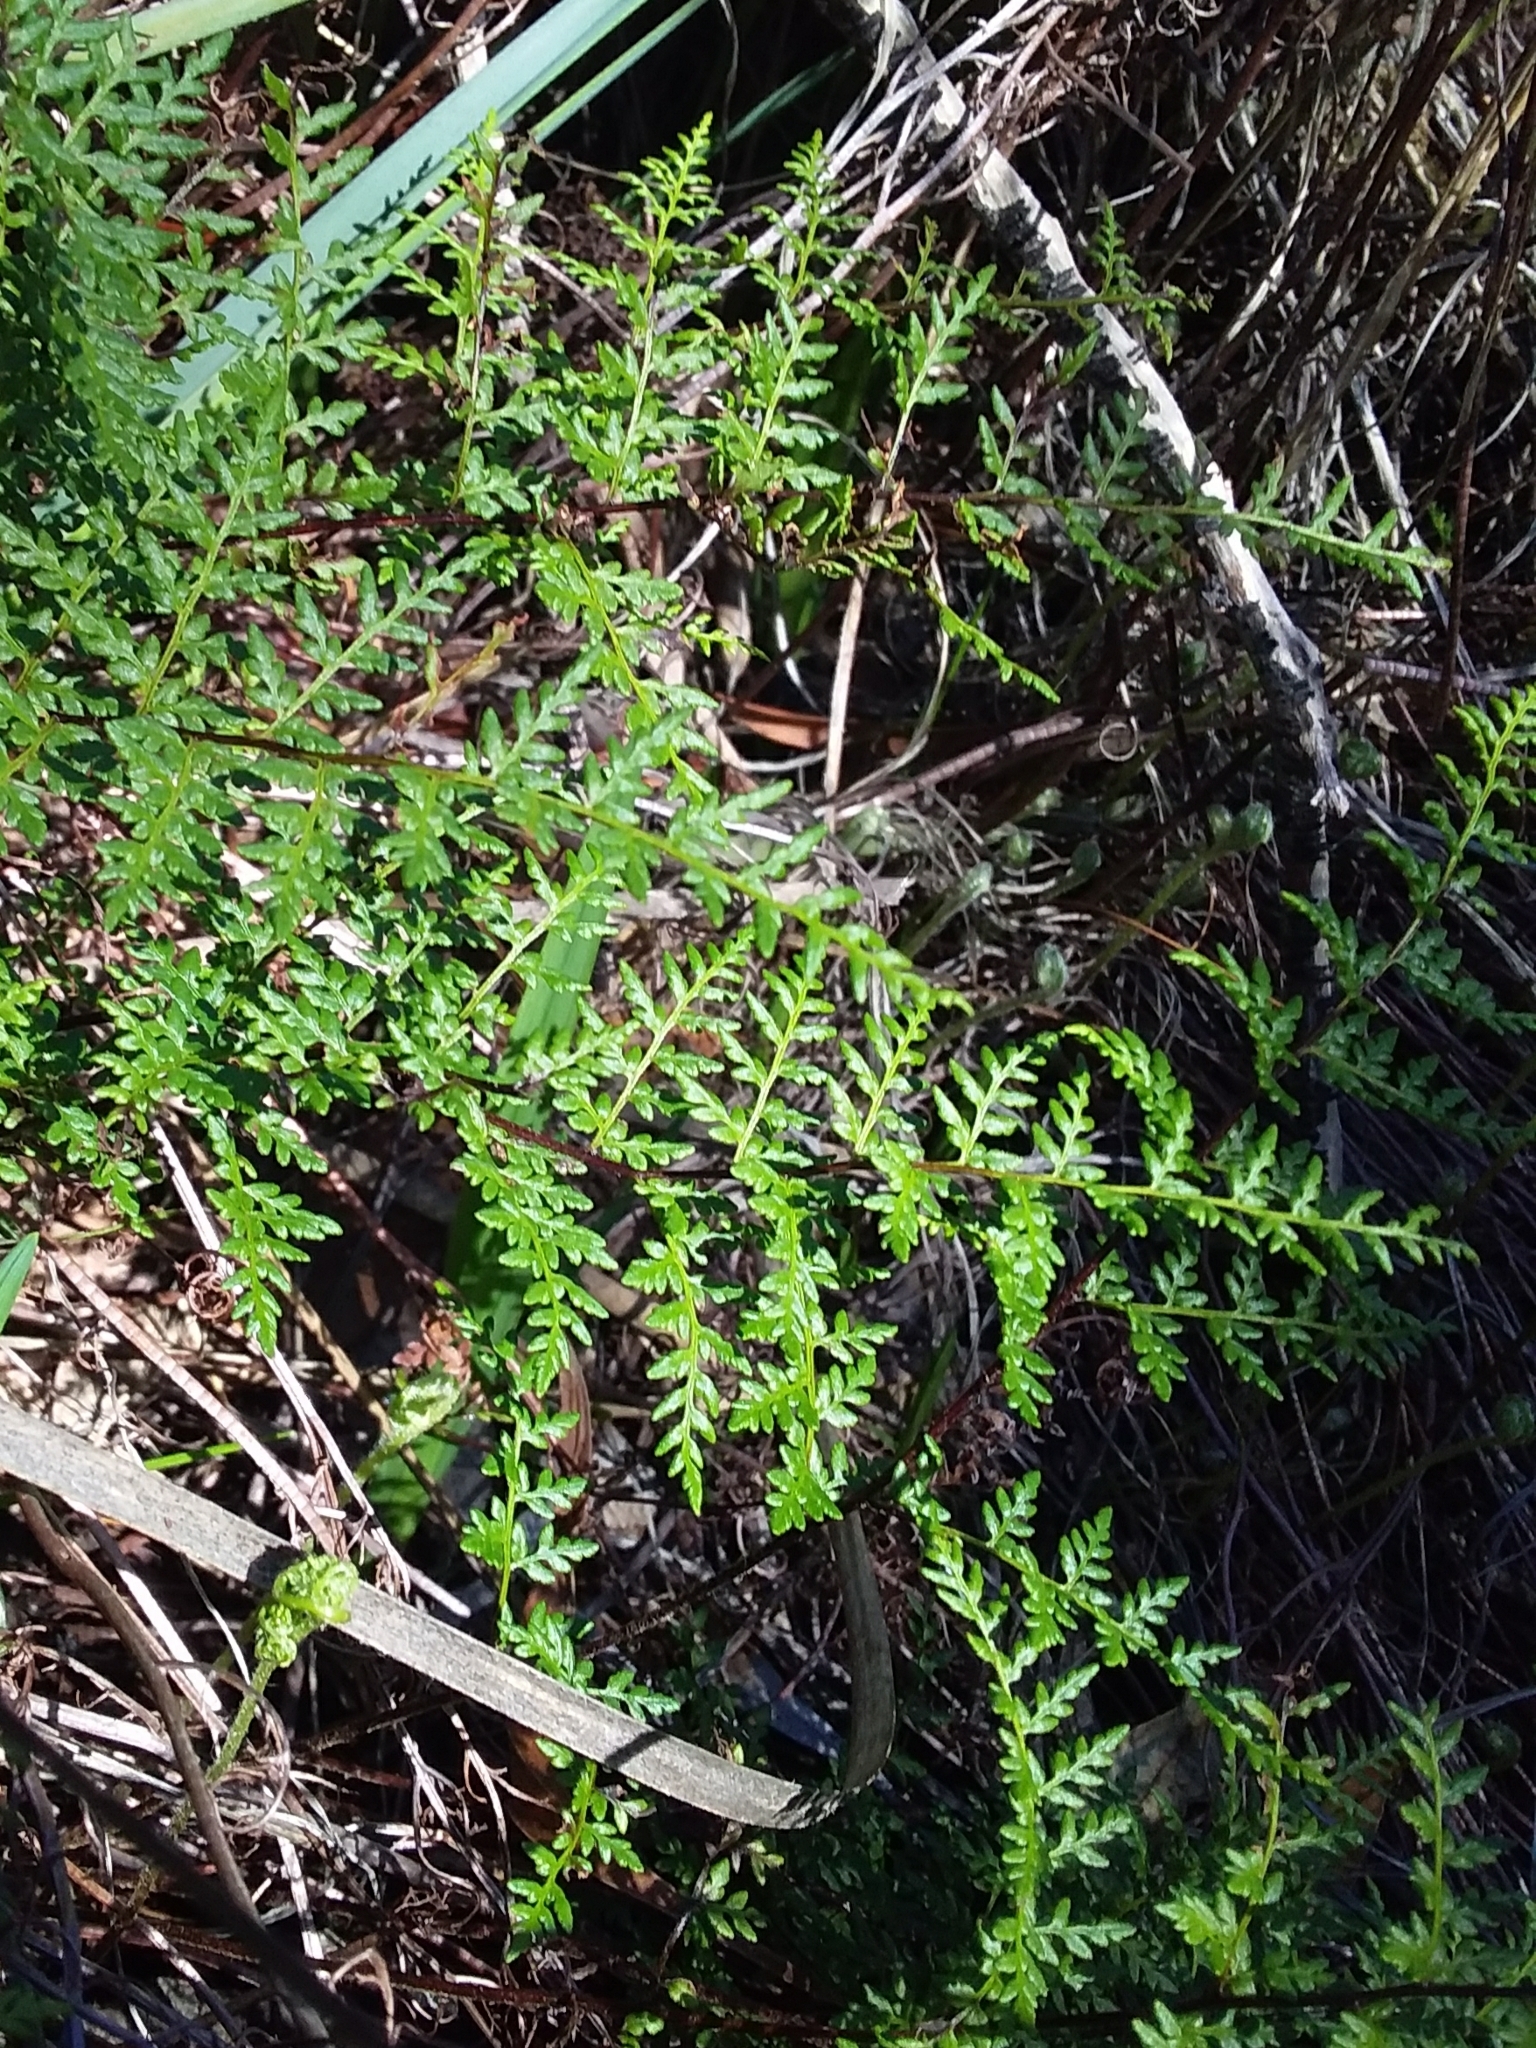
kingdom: Plantae
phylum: Tracheophyta
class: Polypodiopsida
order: Polypodiales
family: Pteridaceae
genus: Cheilanthes
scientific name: Cheilanthes austrotenuifolia
